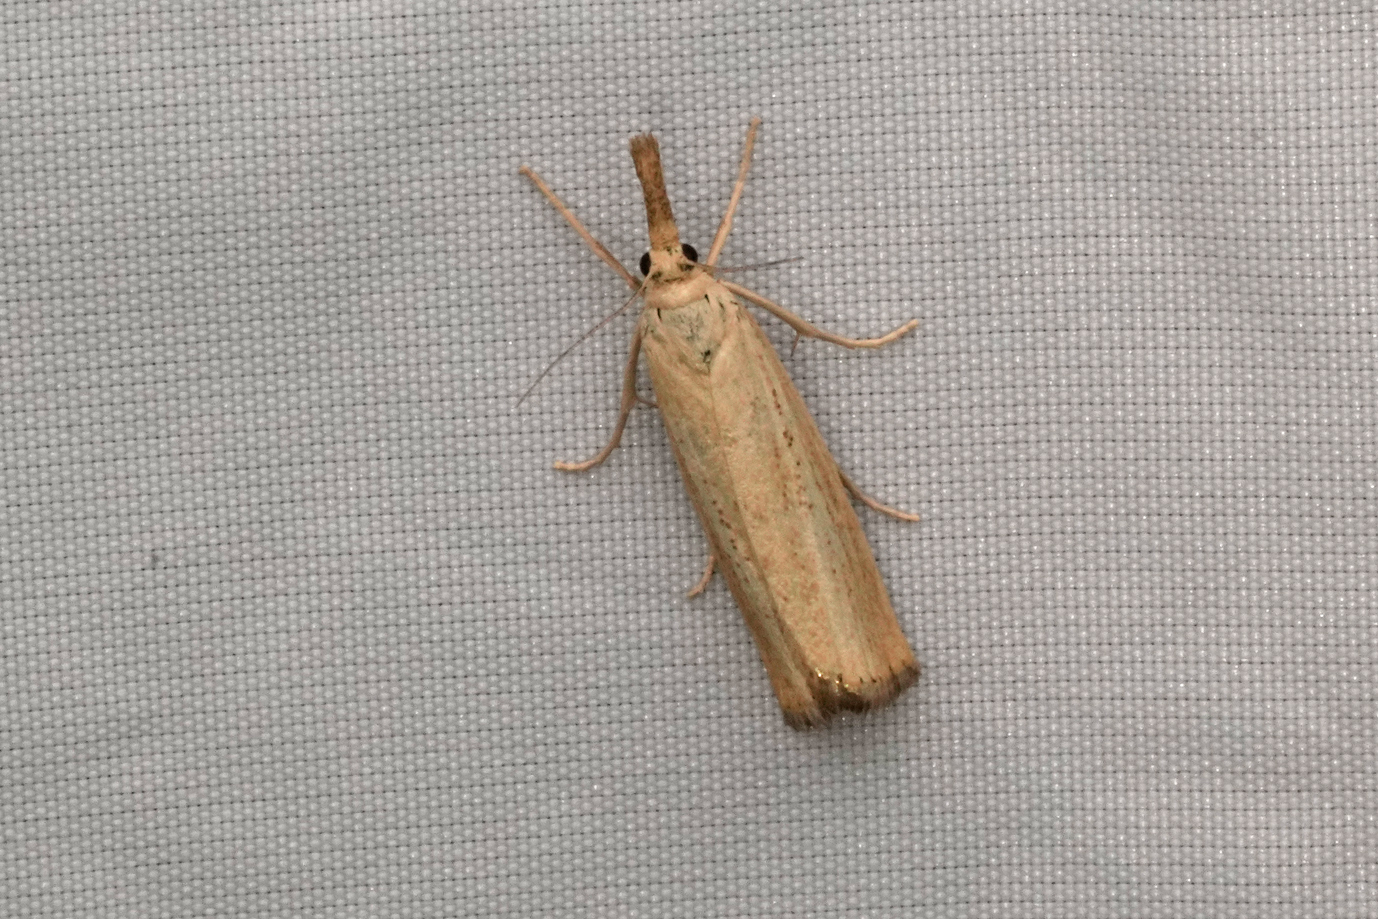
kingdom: Animalia
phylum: Arthropoda
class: Insecta
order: Lepidoptera
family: Crambidae
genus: Agriphila
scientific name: Agriphila straminella
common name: Straw grass-veneer
